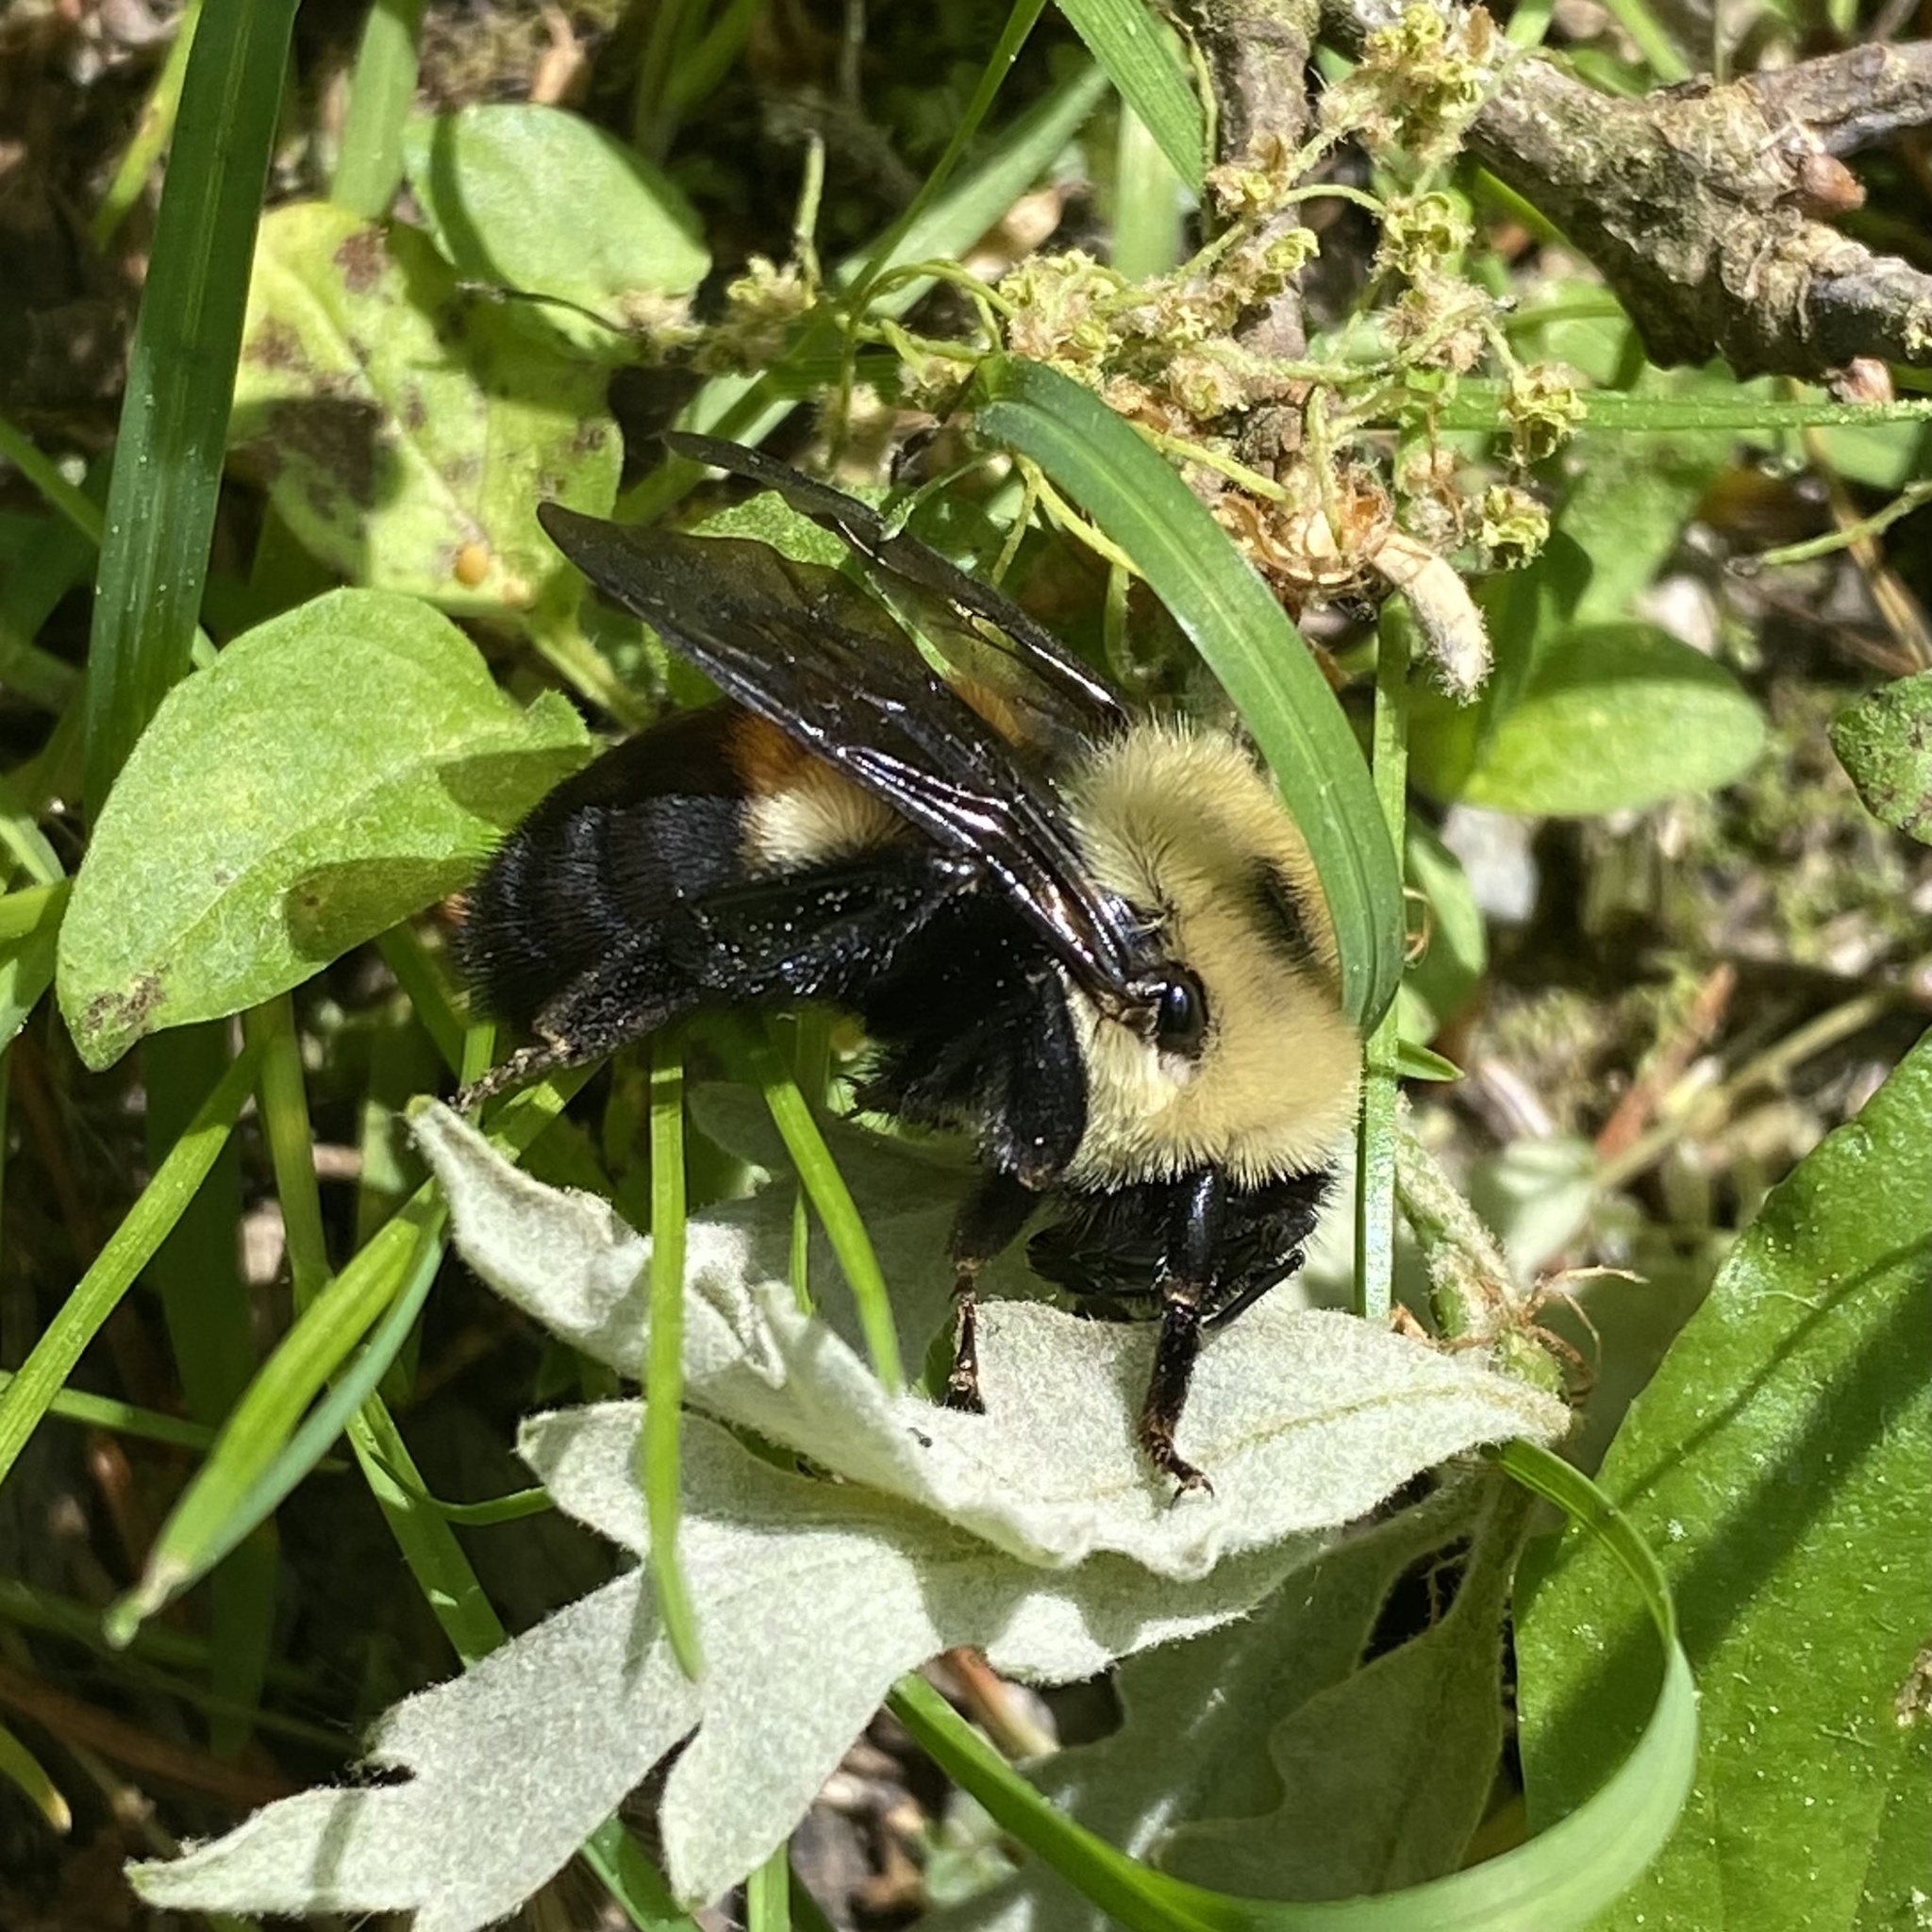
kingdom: Animalia
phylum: Arthropoda
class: Insecta
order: Hymenoptera
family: Apidae
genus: Bombus
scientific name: Bombus griseocollis
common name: Brown-belted bumble bee
